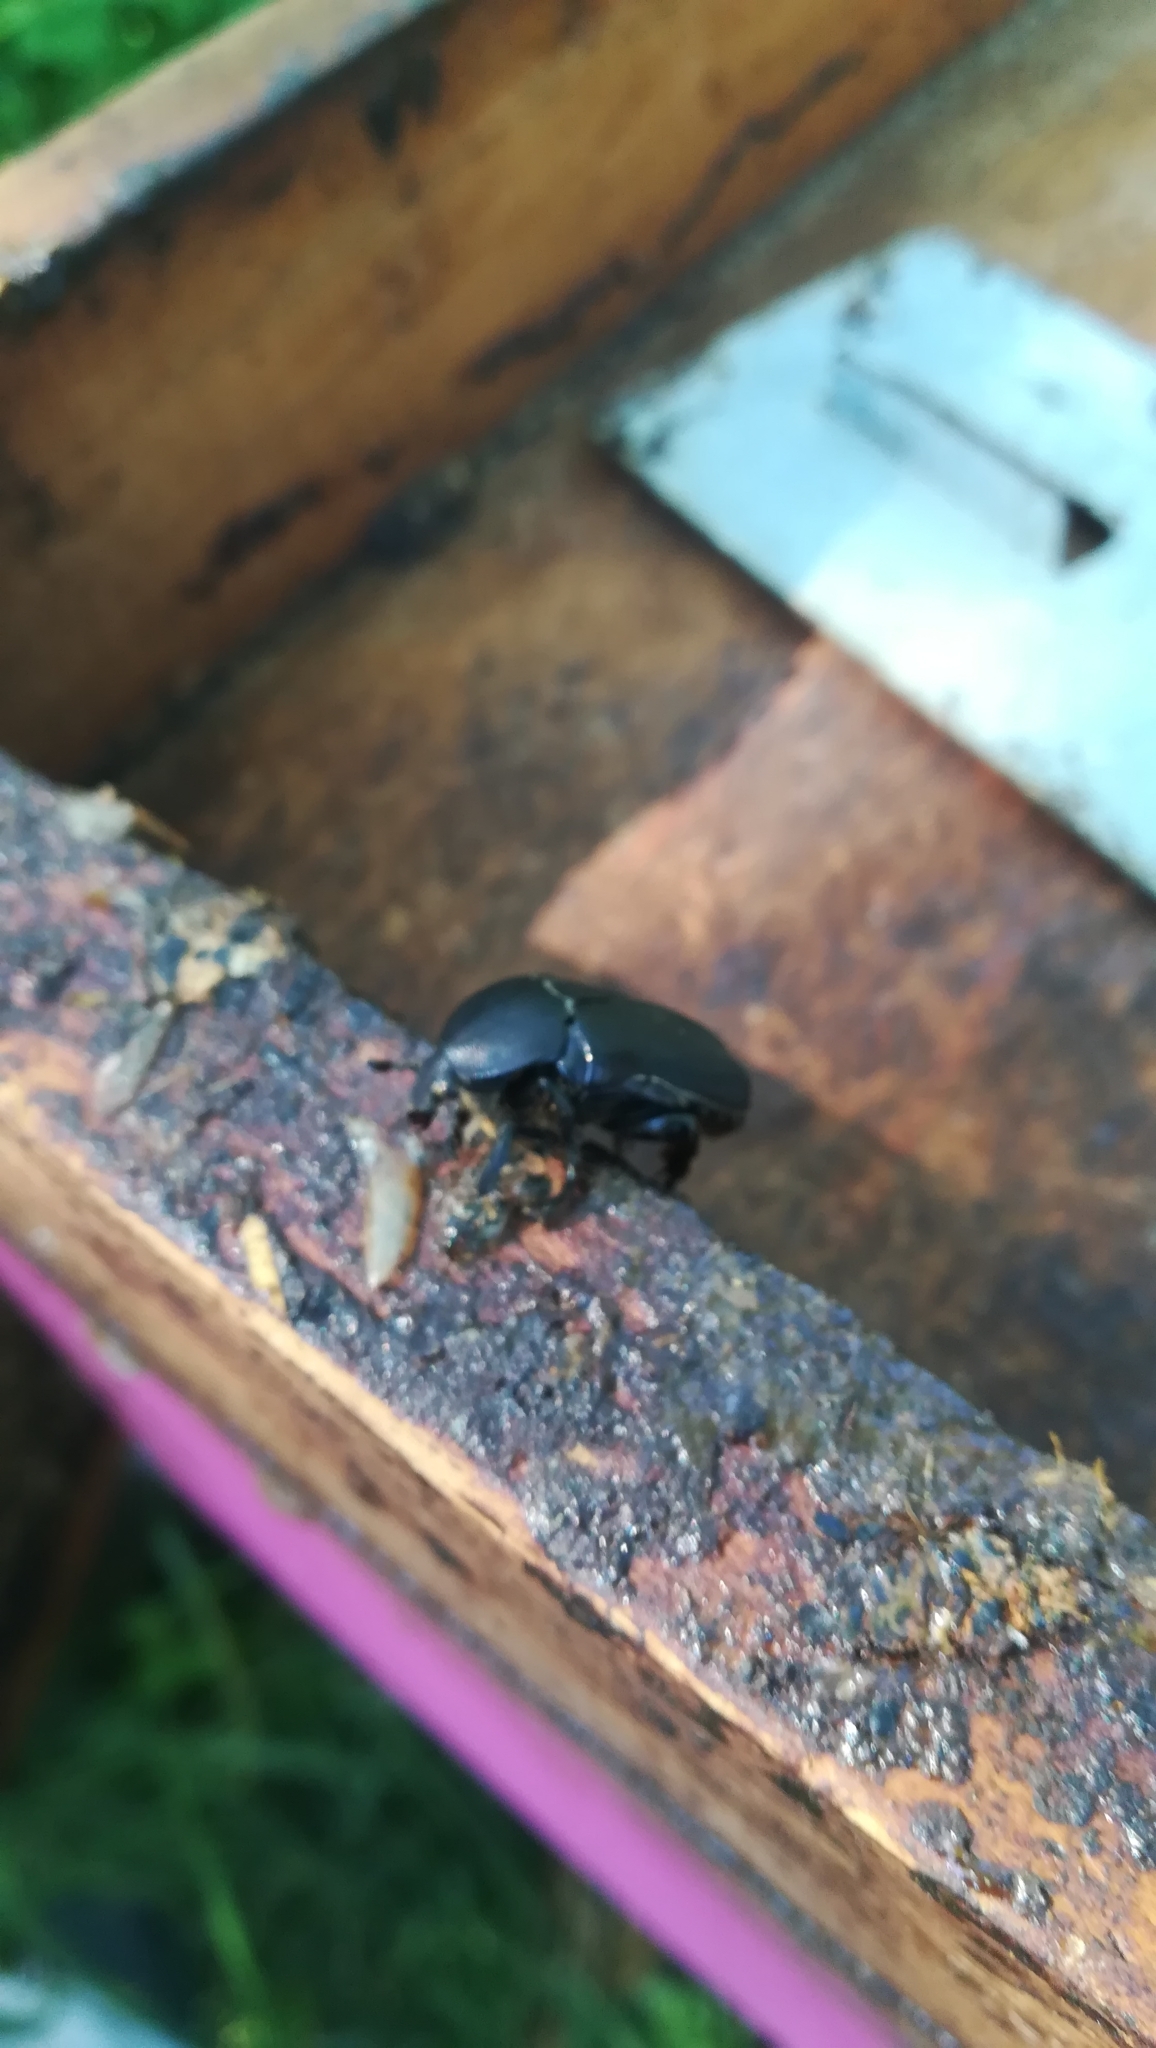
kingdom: Animalia
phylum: Arthropoda
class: Insecta
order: Coleoptera
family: Scarabaeidae
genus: Protaetia
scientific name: Protaetia morio
